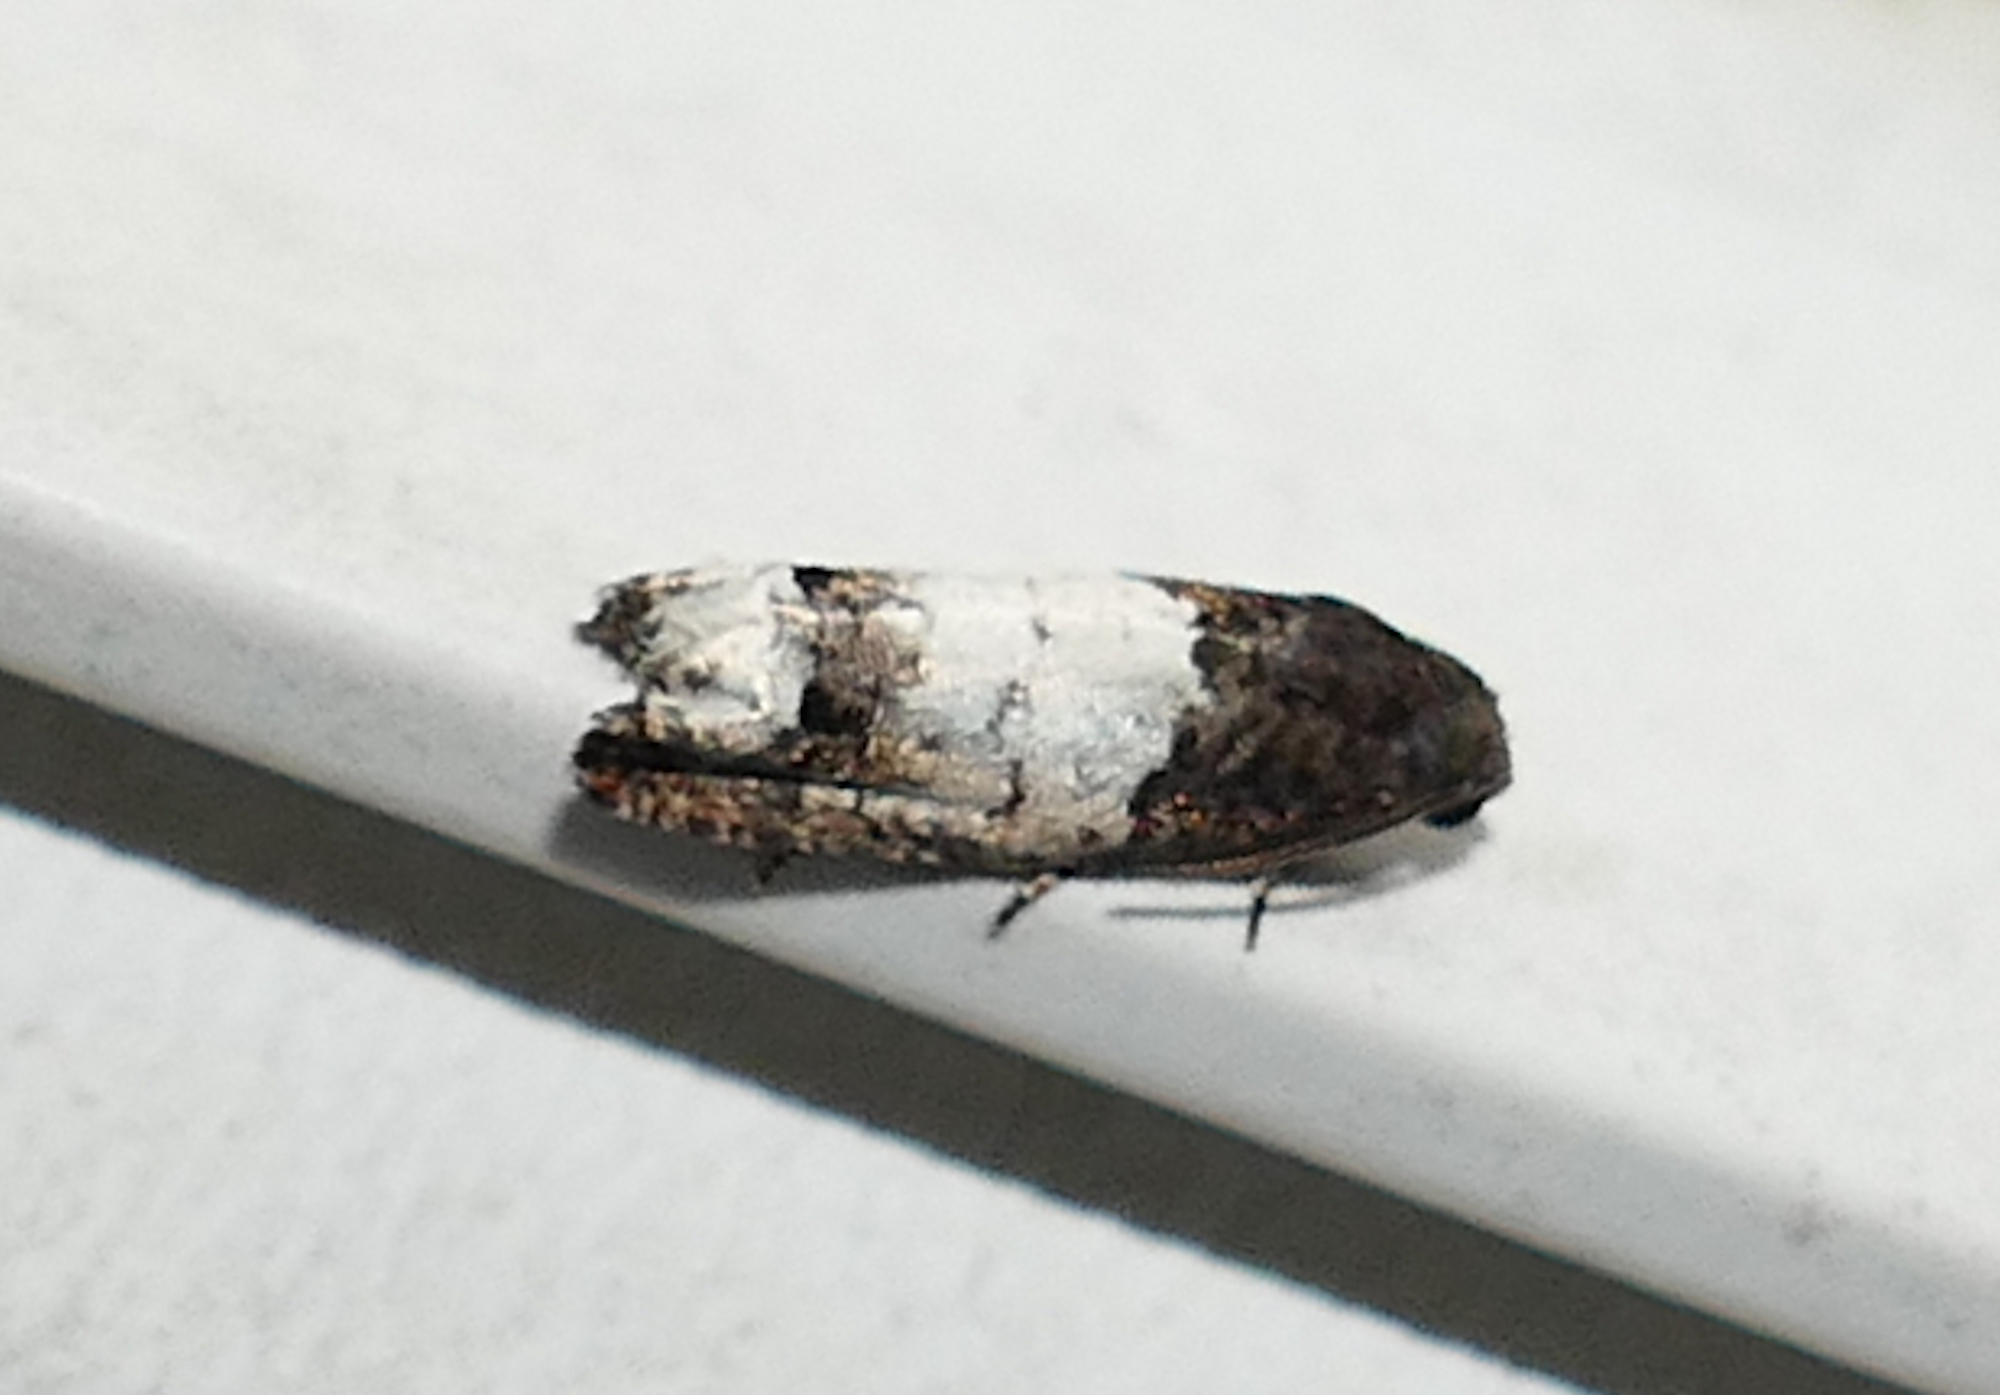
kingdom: Animalia
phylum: Arthropoda
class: Insecta
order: Lepidoptera
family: Tortricidae
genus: Epiblema
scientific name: Epiblema scudderiana
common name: Goldenrod gall moth
